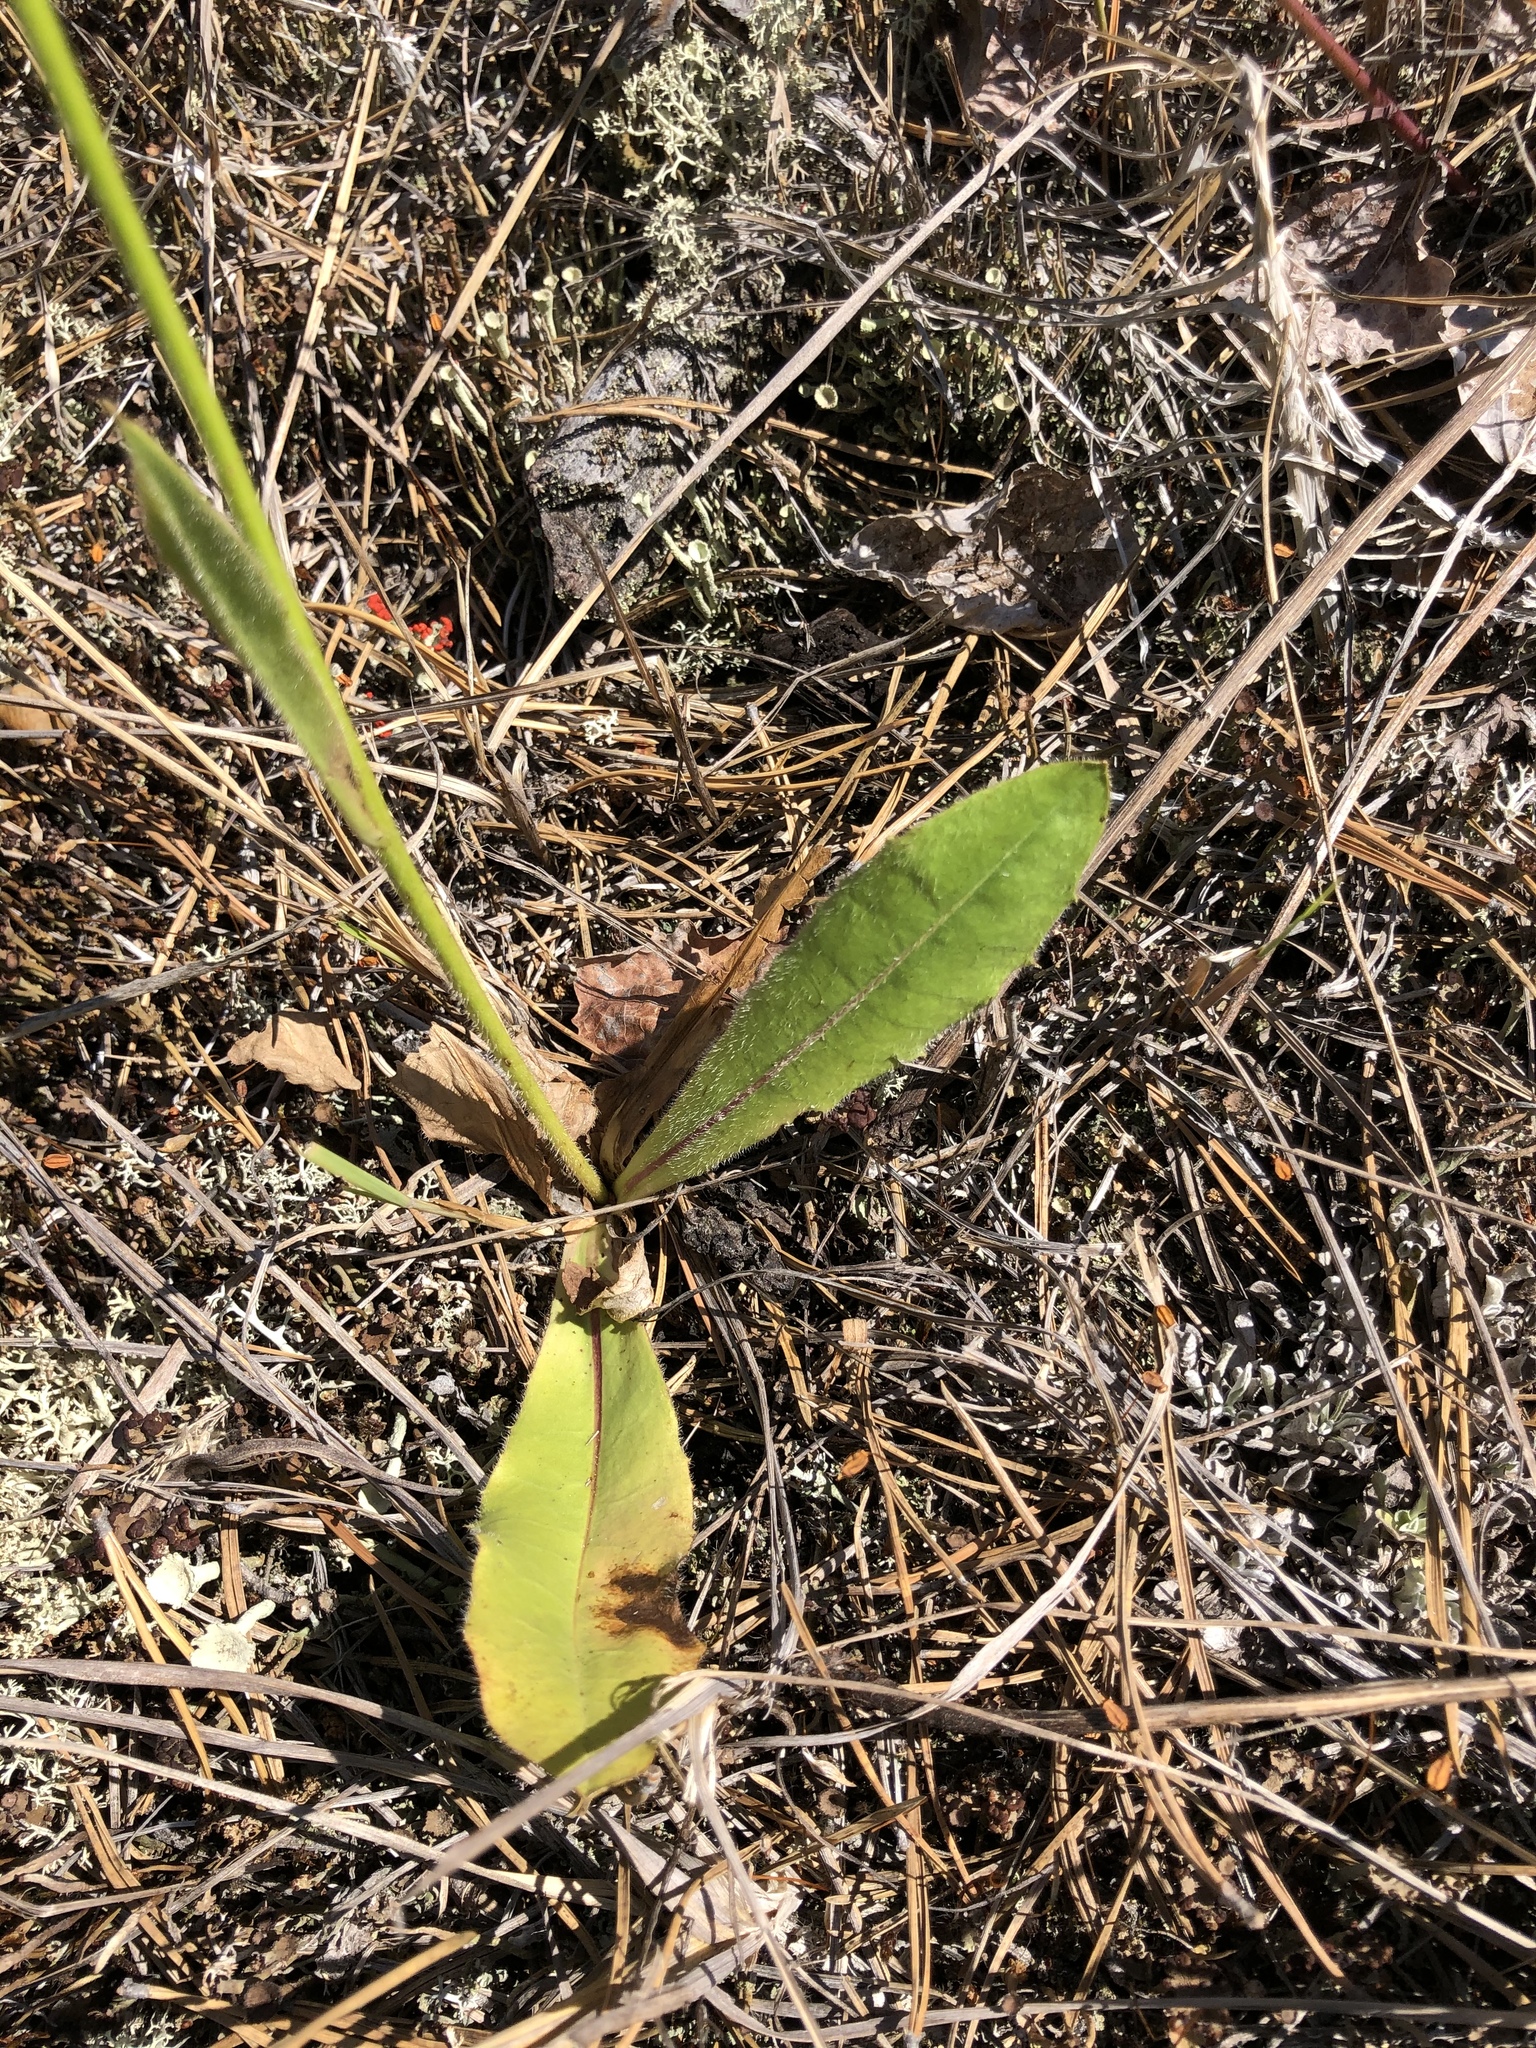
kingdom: Plantae
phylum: Tracheophyta
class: Magnoliopsida
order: Asterales
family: Asteraceae
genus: Trommsdorffia
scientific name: Trommsdorffia maculata
